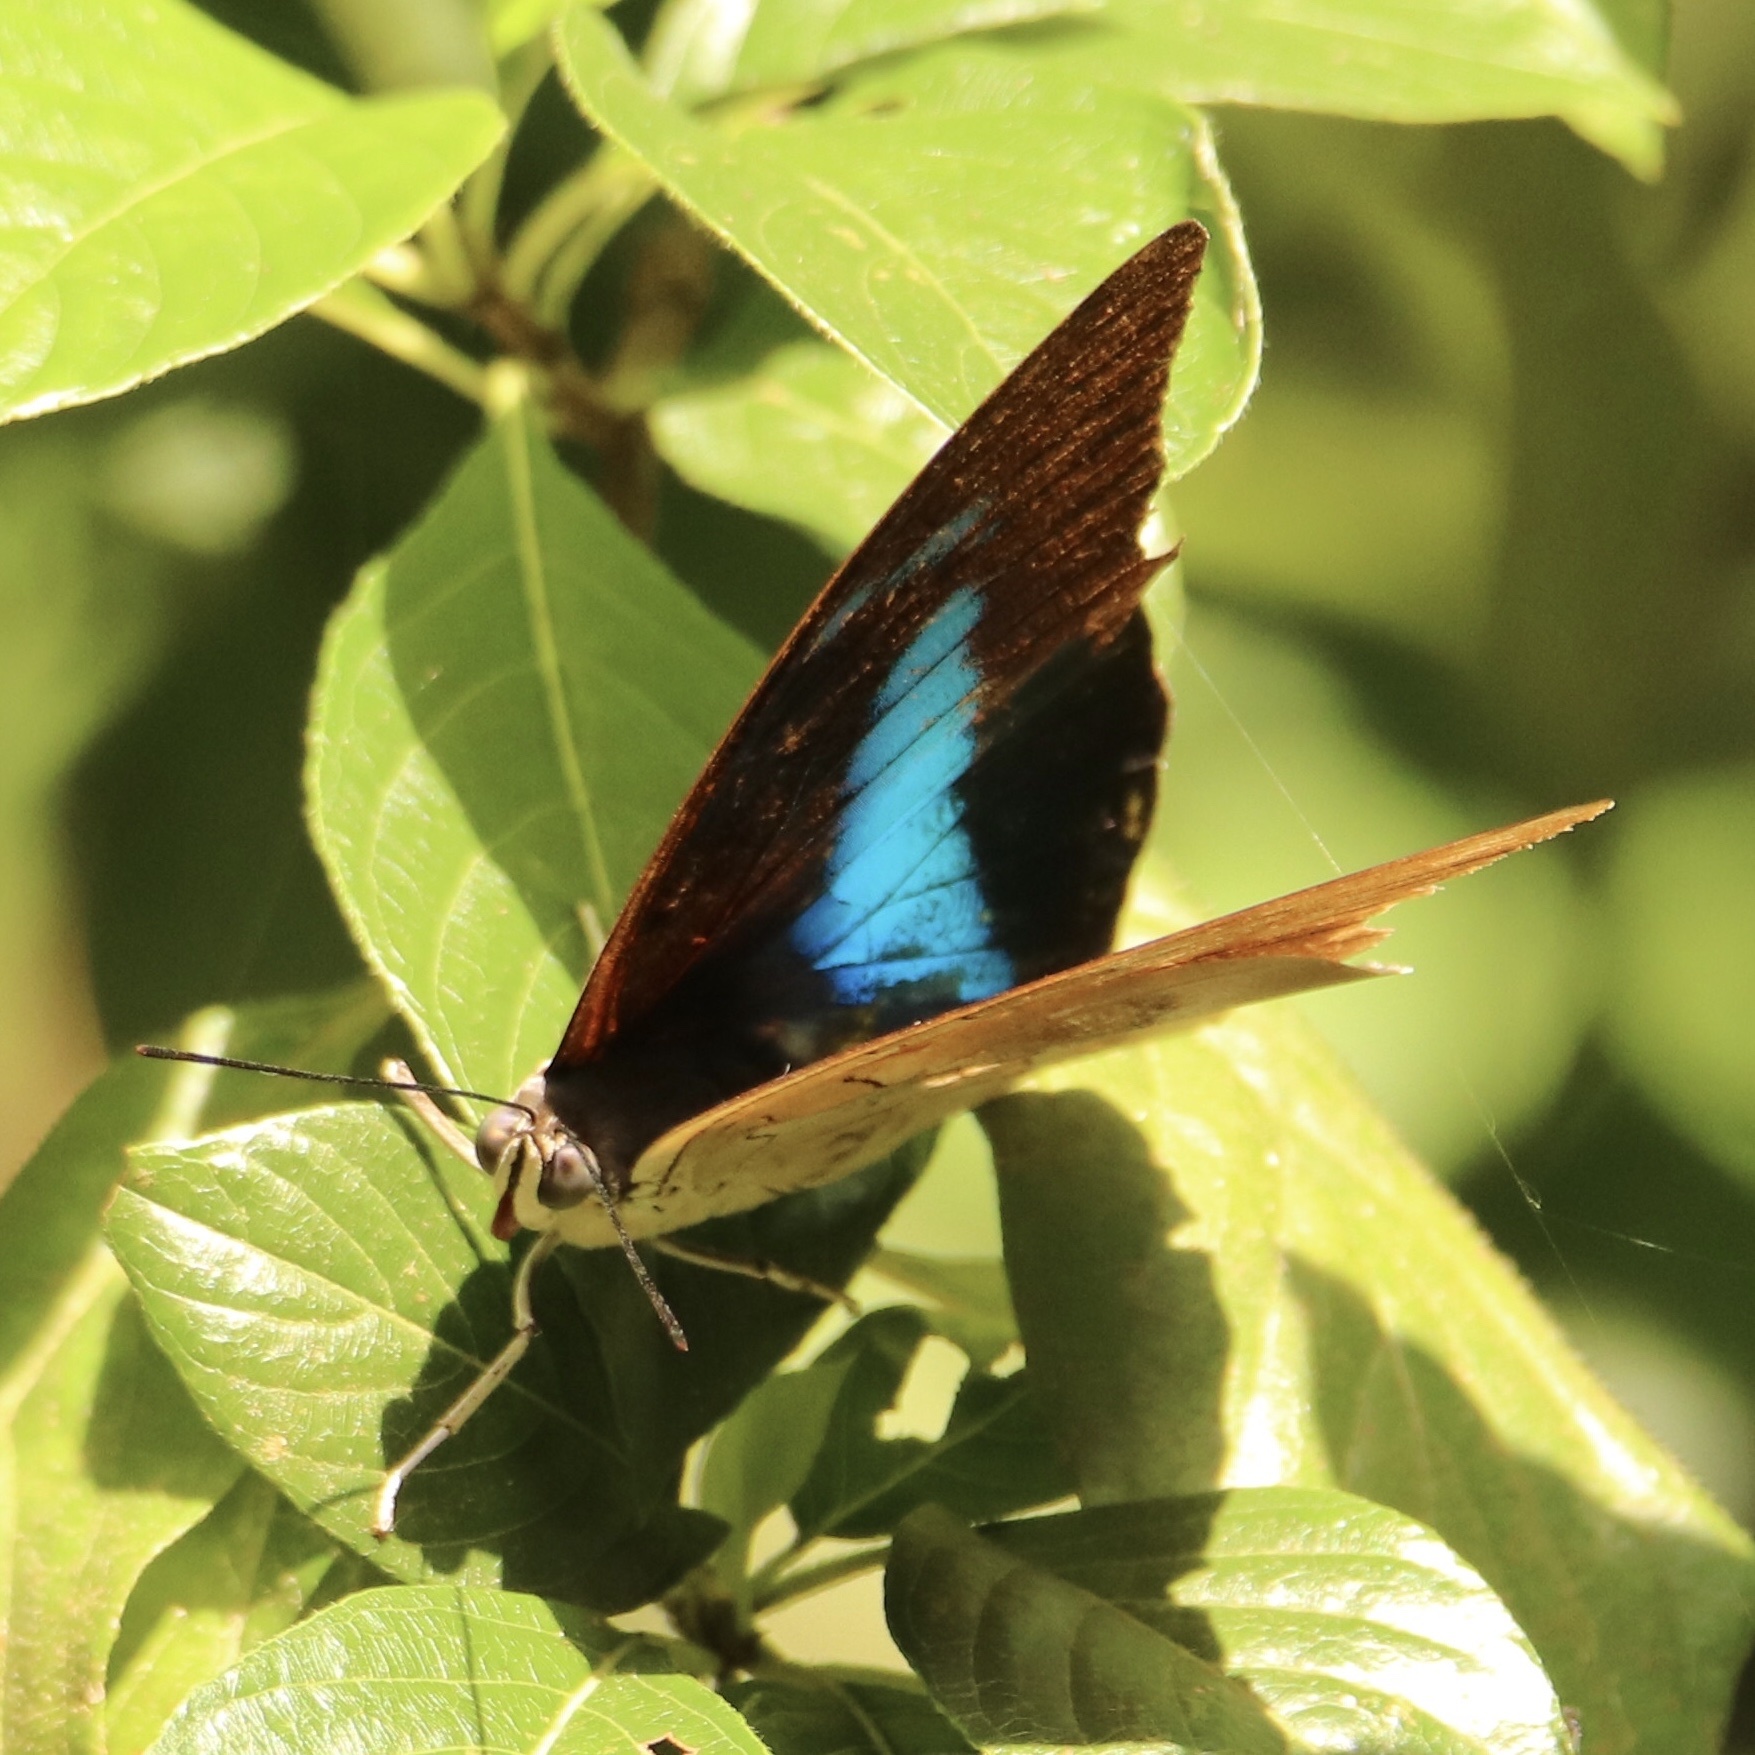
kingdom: Animalia
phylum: Arthropoda
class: Insecta
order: Lepidoptera
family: Nymphalidae
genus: Prepona
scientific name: Prepona demophon
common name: One-spotted prepona
